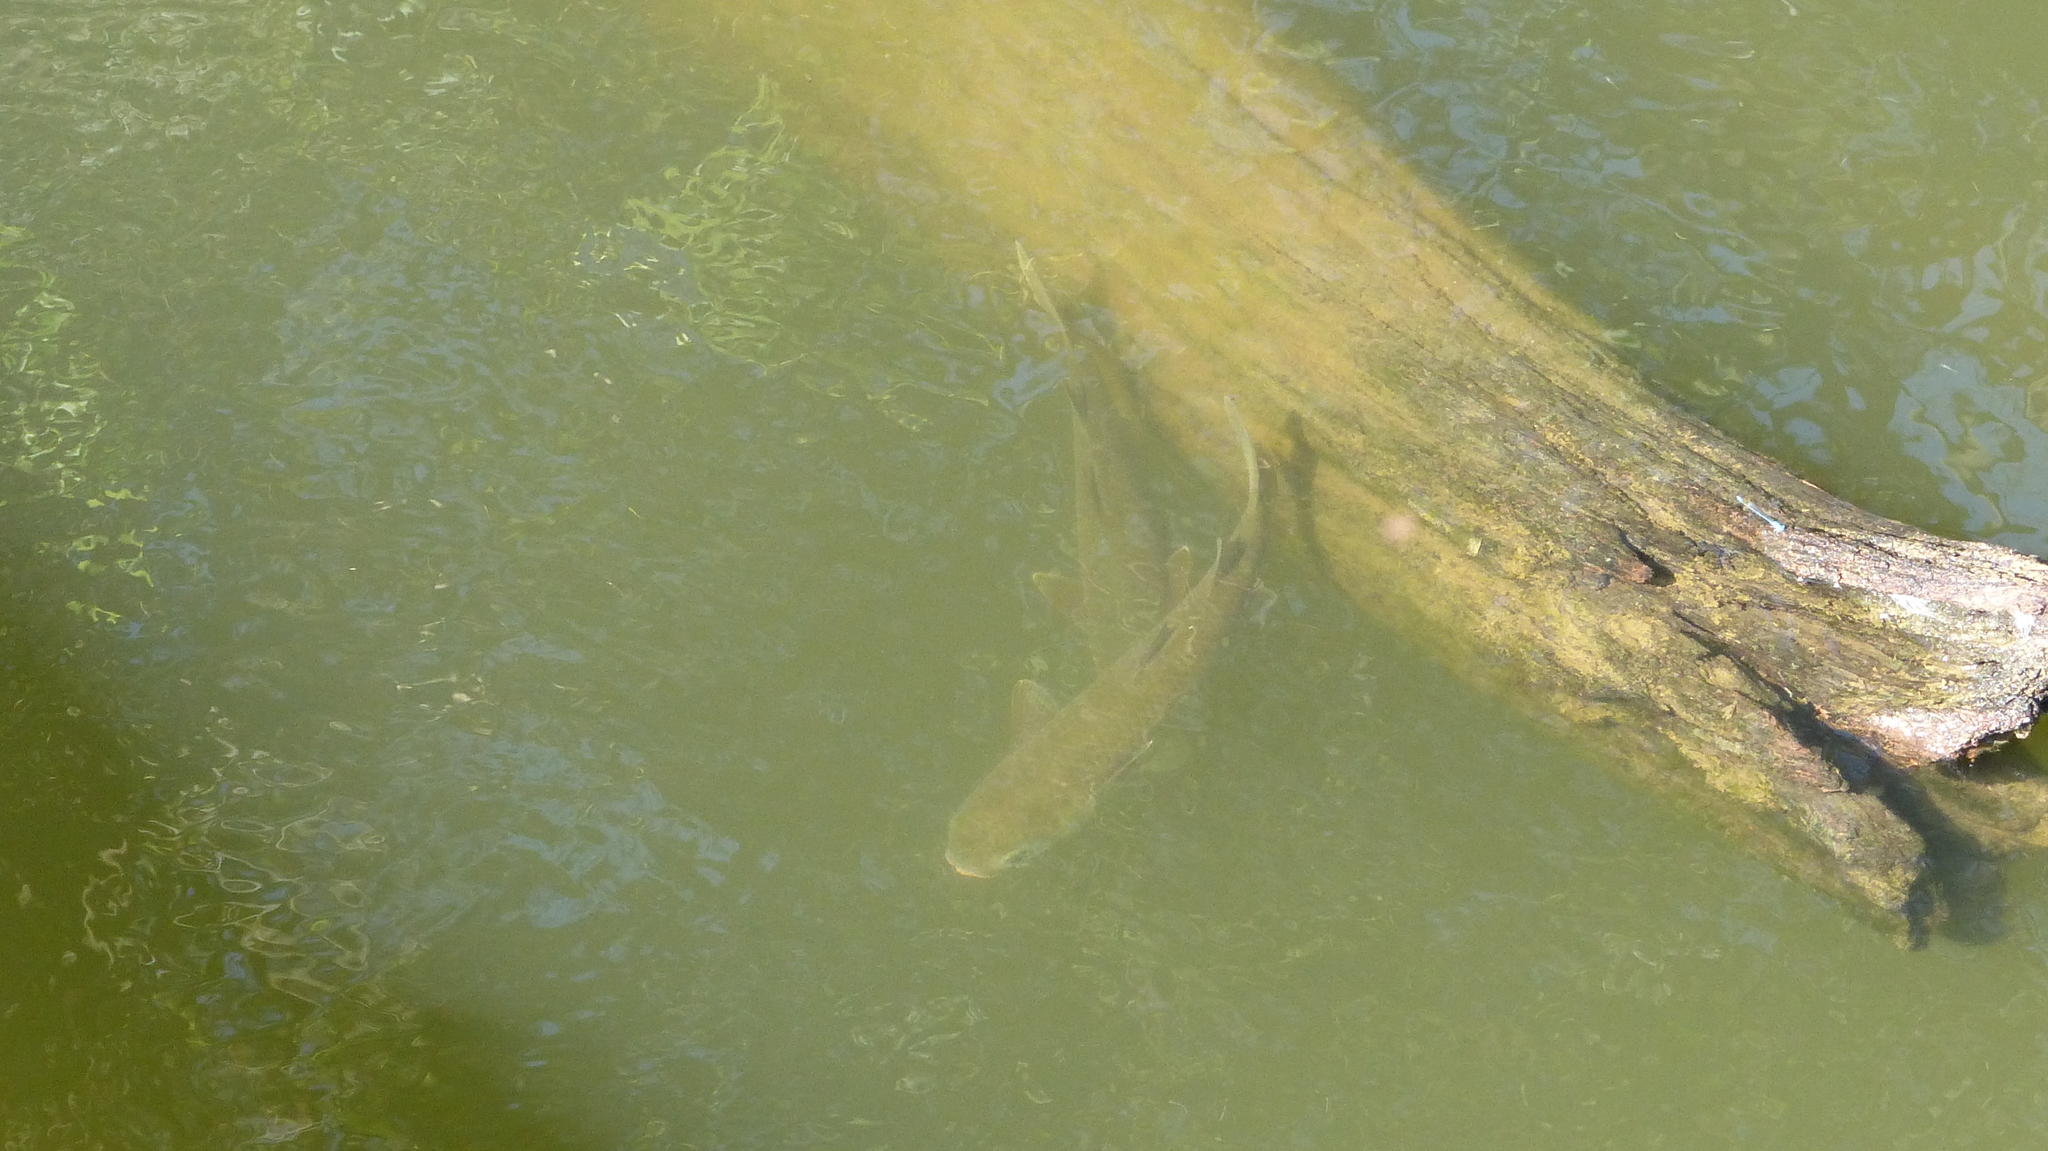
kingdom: Animalia
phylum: Chordata
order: Mugiliformes
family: Mugilidae
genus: Mugil
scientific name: Mugil cephalus
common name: Grey mullet
